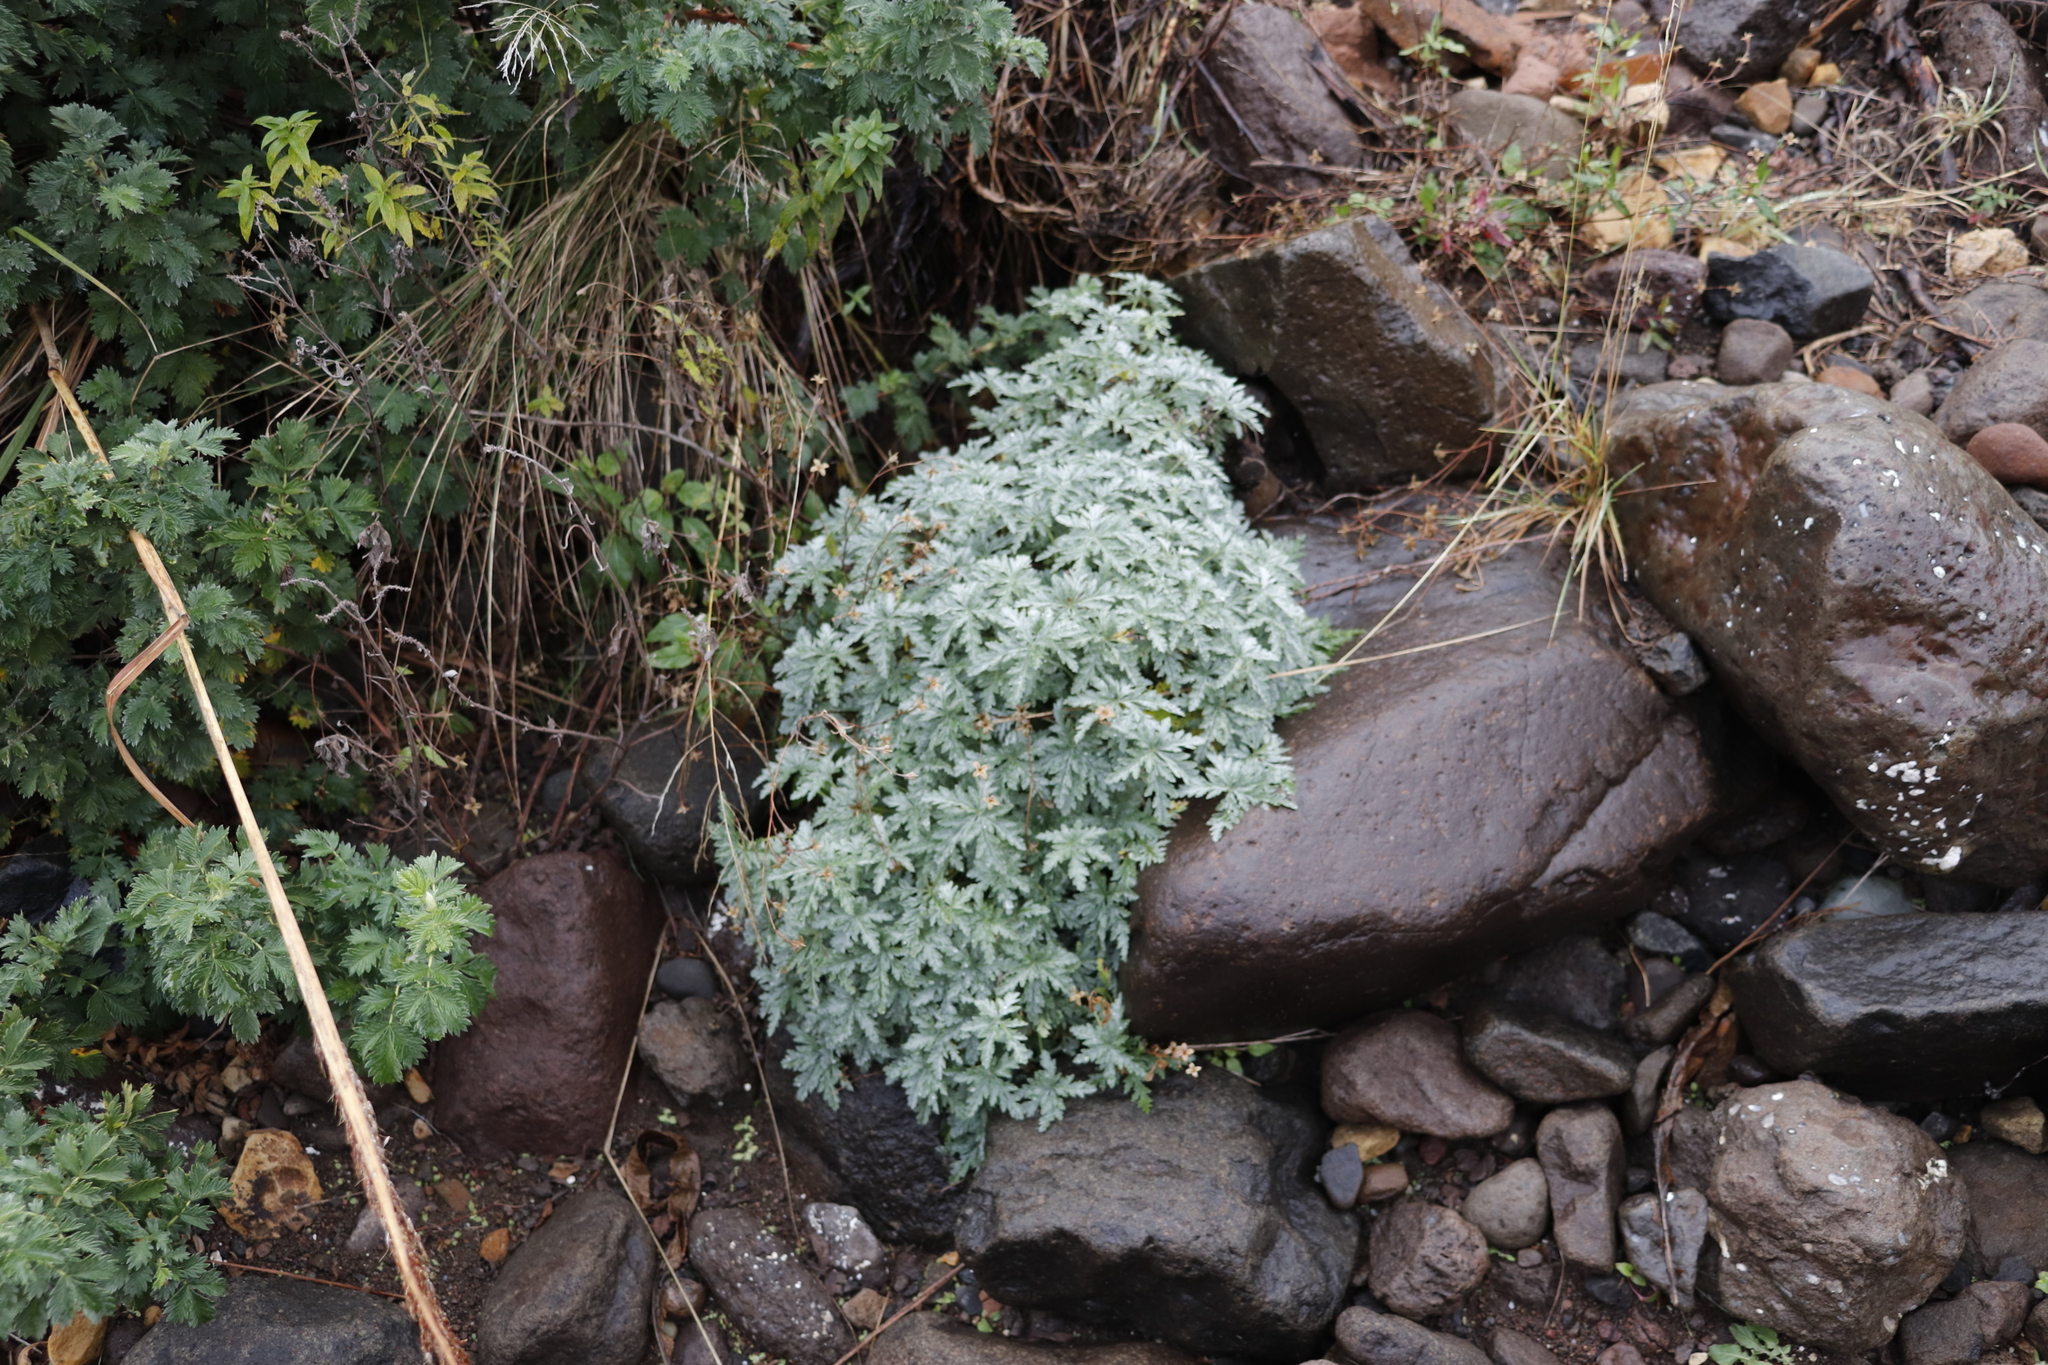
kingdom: Plantae
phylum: Tracheophyta
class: Magnoliopsida
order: Geraniales
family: Geraniaceae
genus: Geranium
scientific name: Geranium drakensbergense
